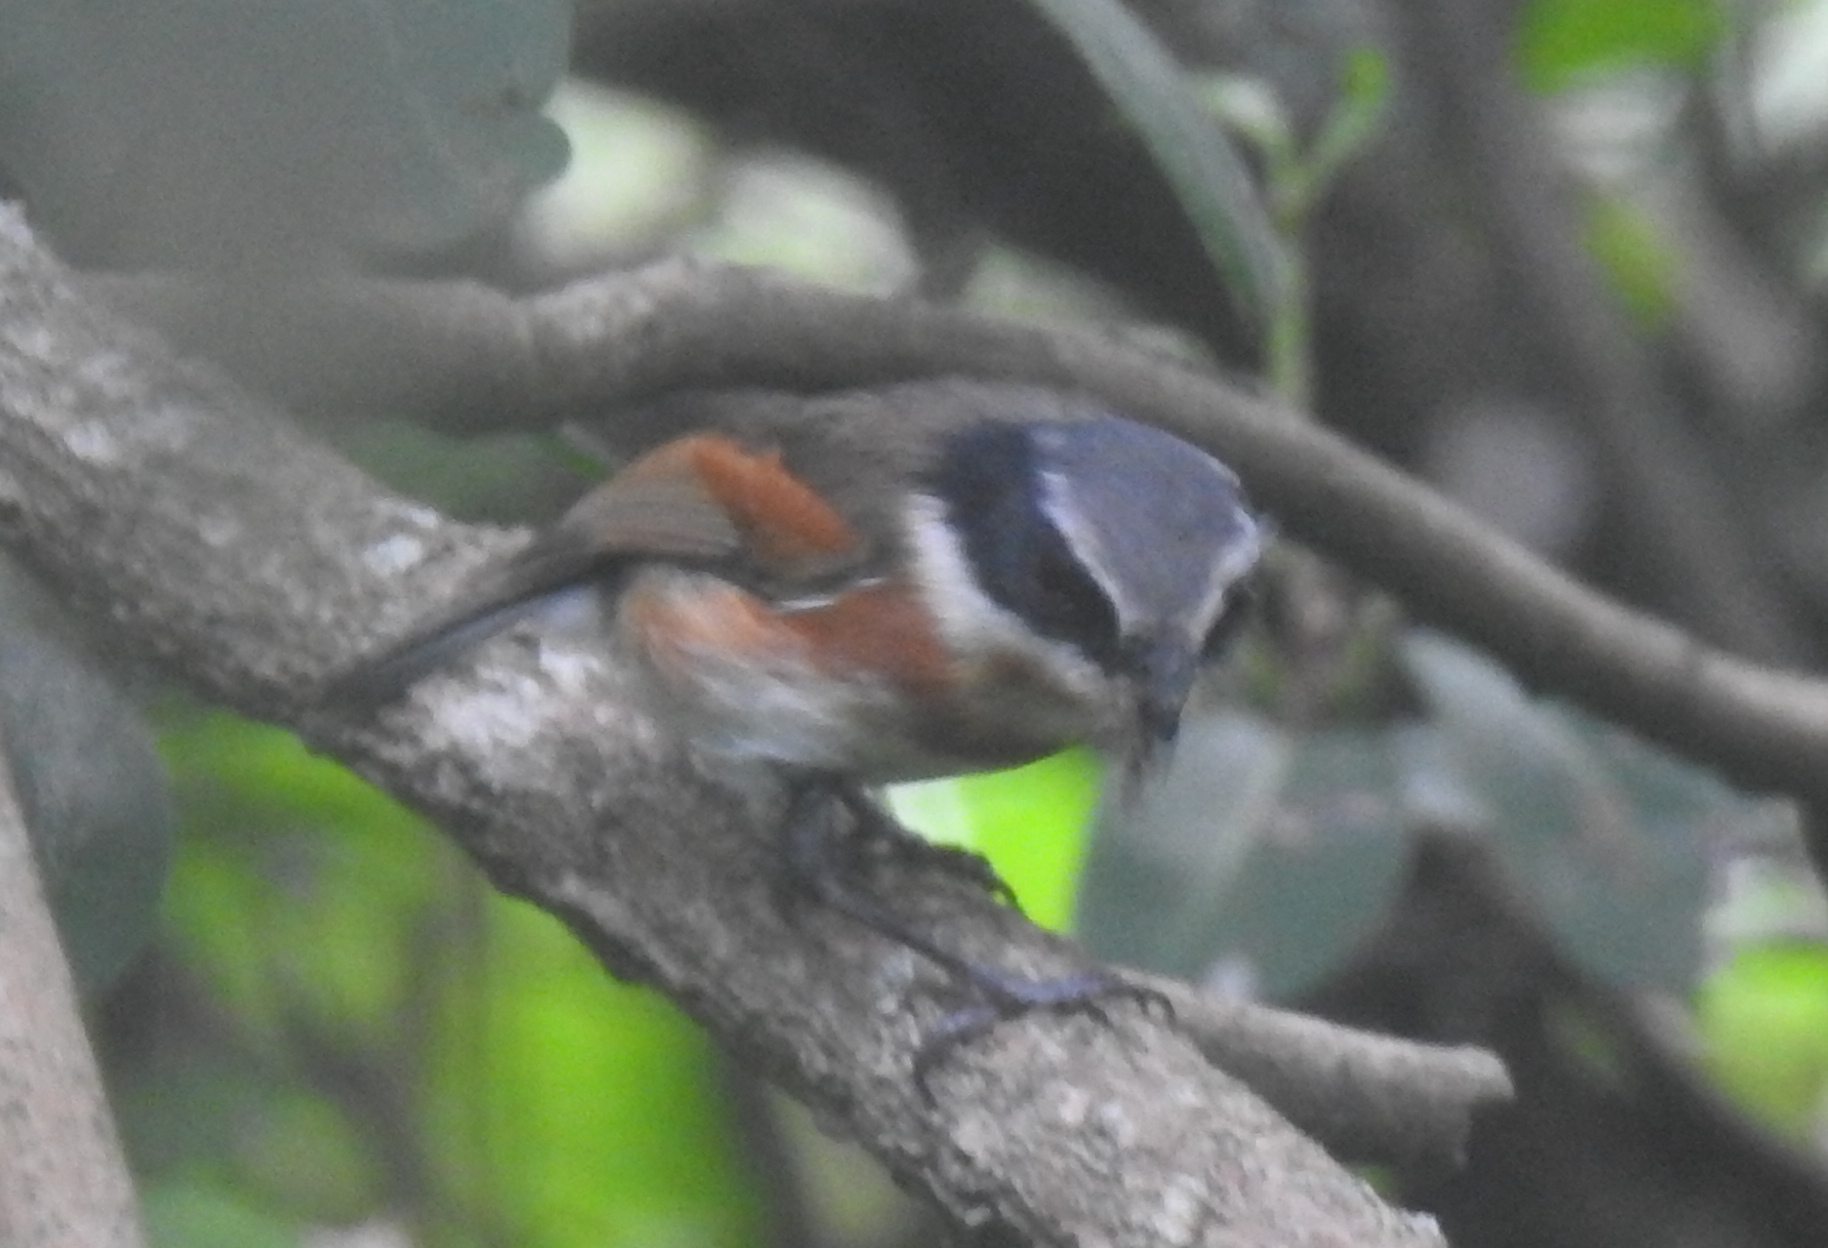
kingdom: Animalia
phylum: Chordata
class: Aves
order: Passeriformes
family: Platysteiridae
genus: Batis
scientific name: Batis capensis
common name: Cape batis
